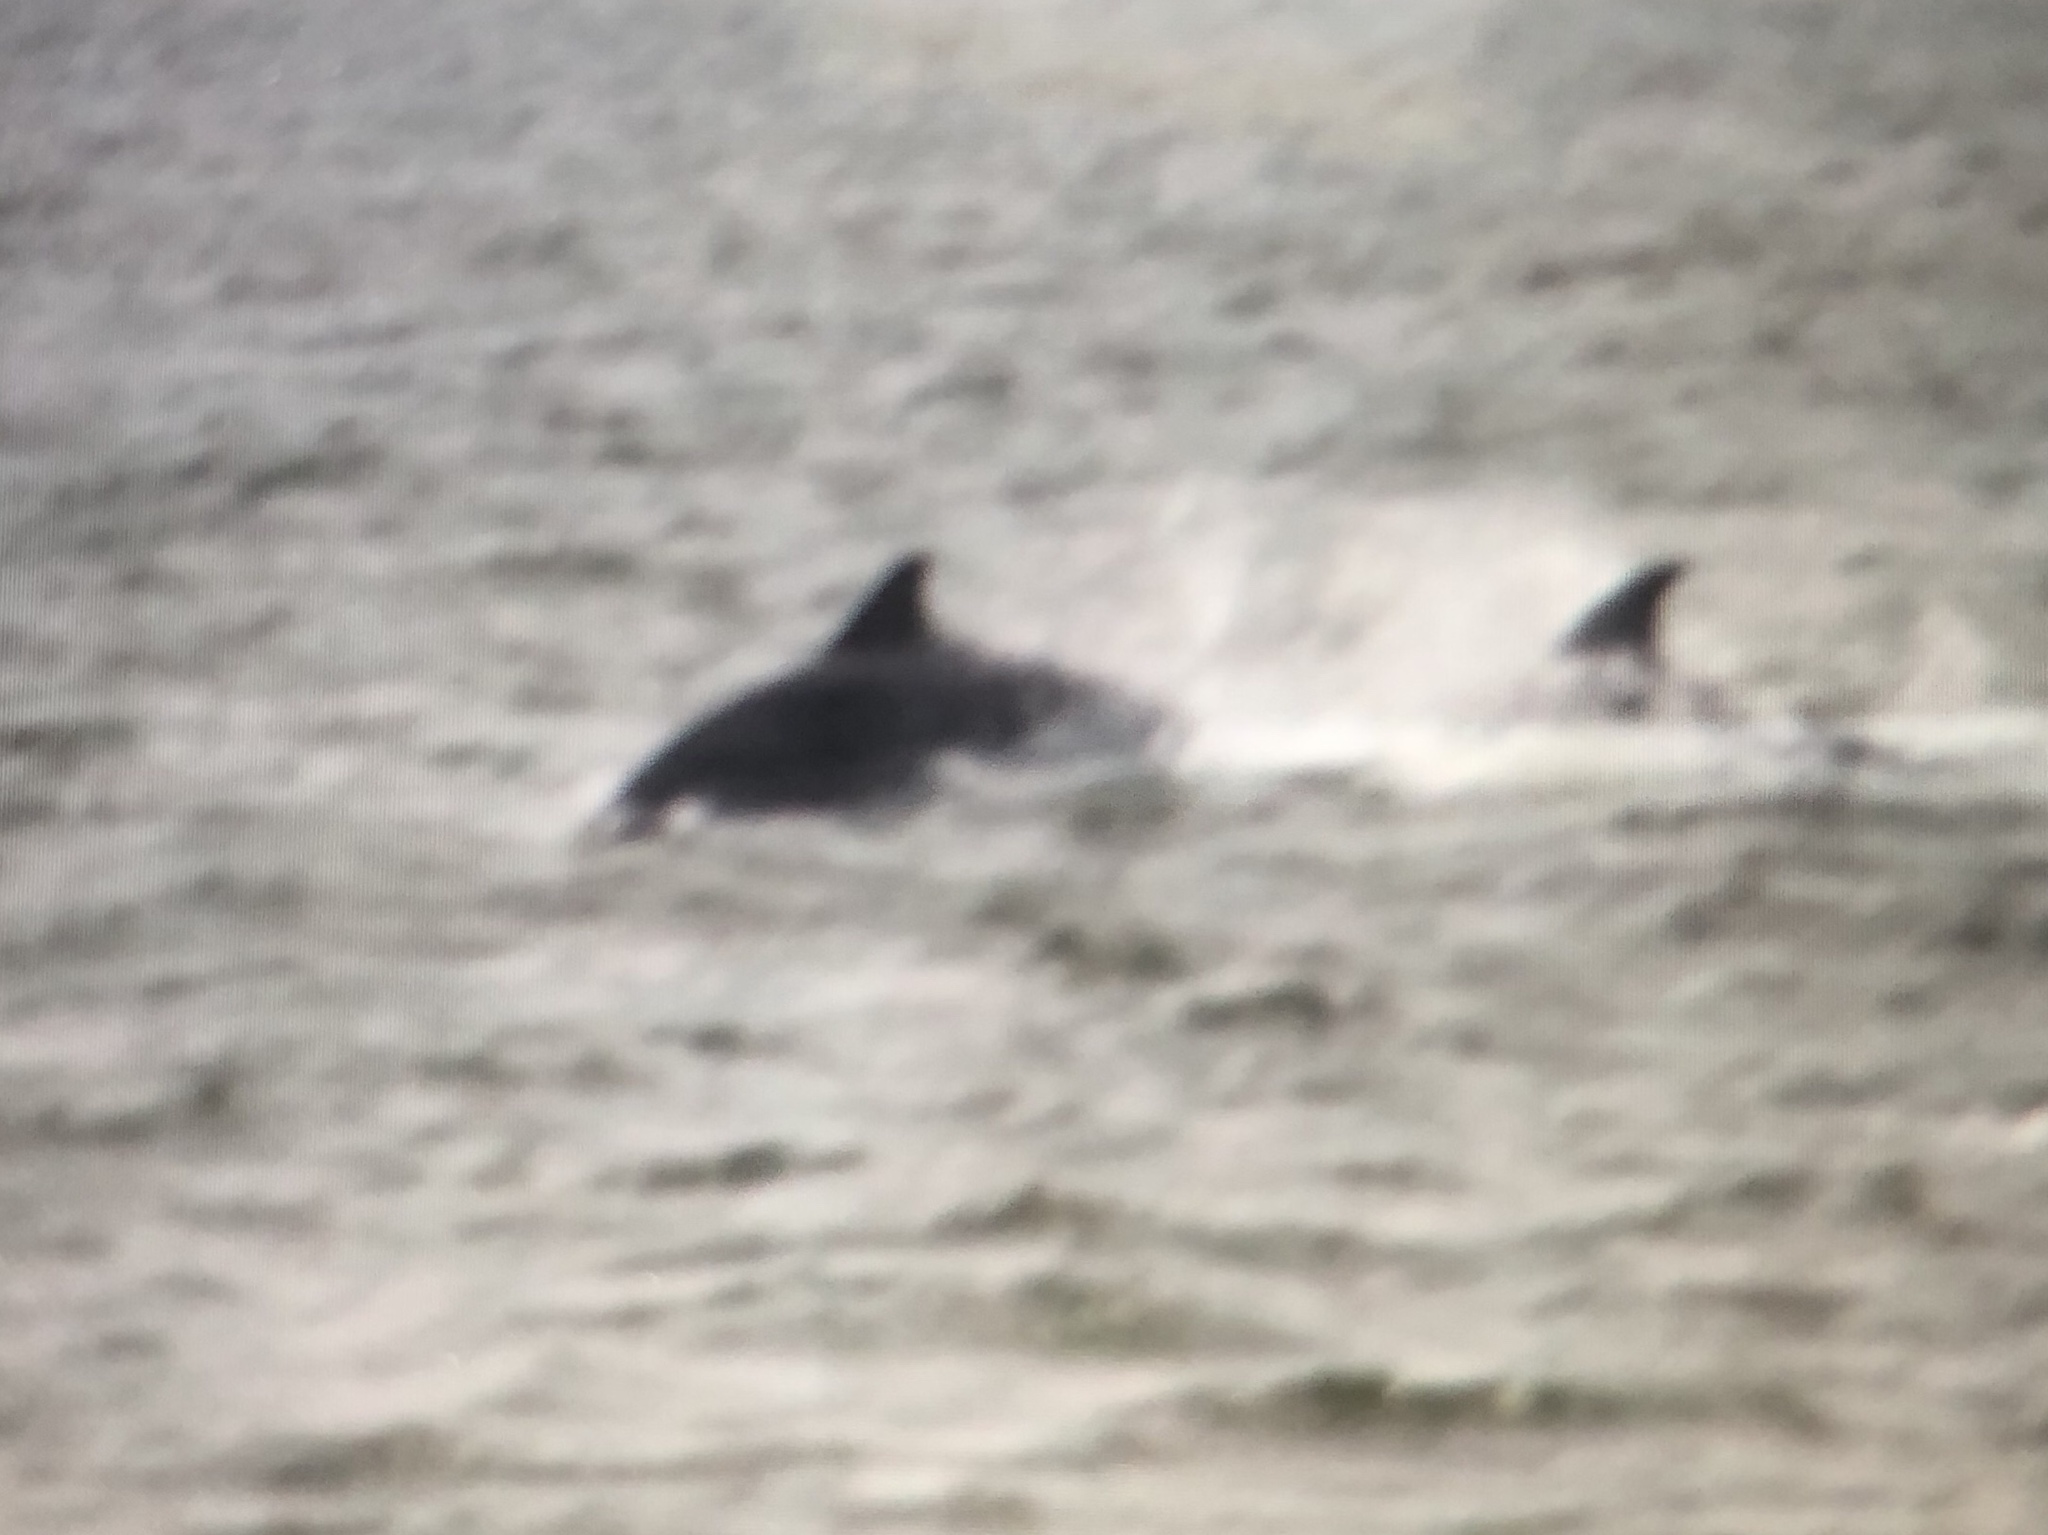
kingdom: Animalia
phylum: Chordata
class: Mammalia
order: Cetacea
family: Delphinidae
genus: Tursiops
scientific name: Tursiops truncatus
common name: Bottlenose dolphin
